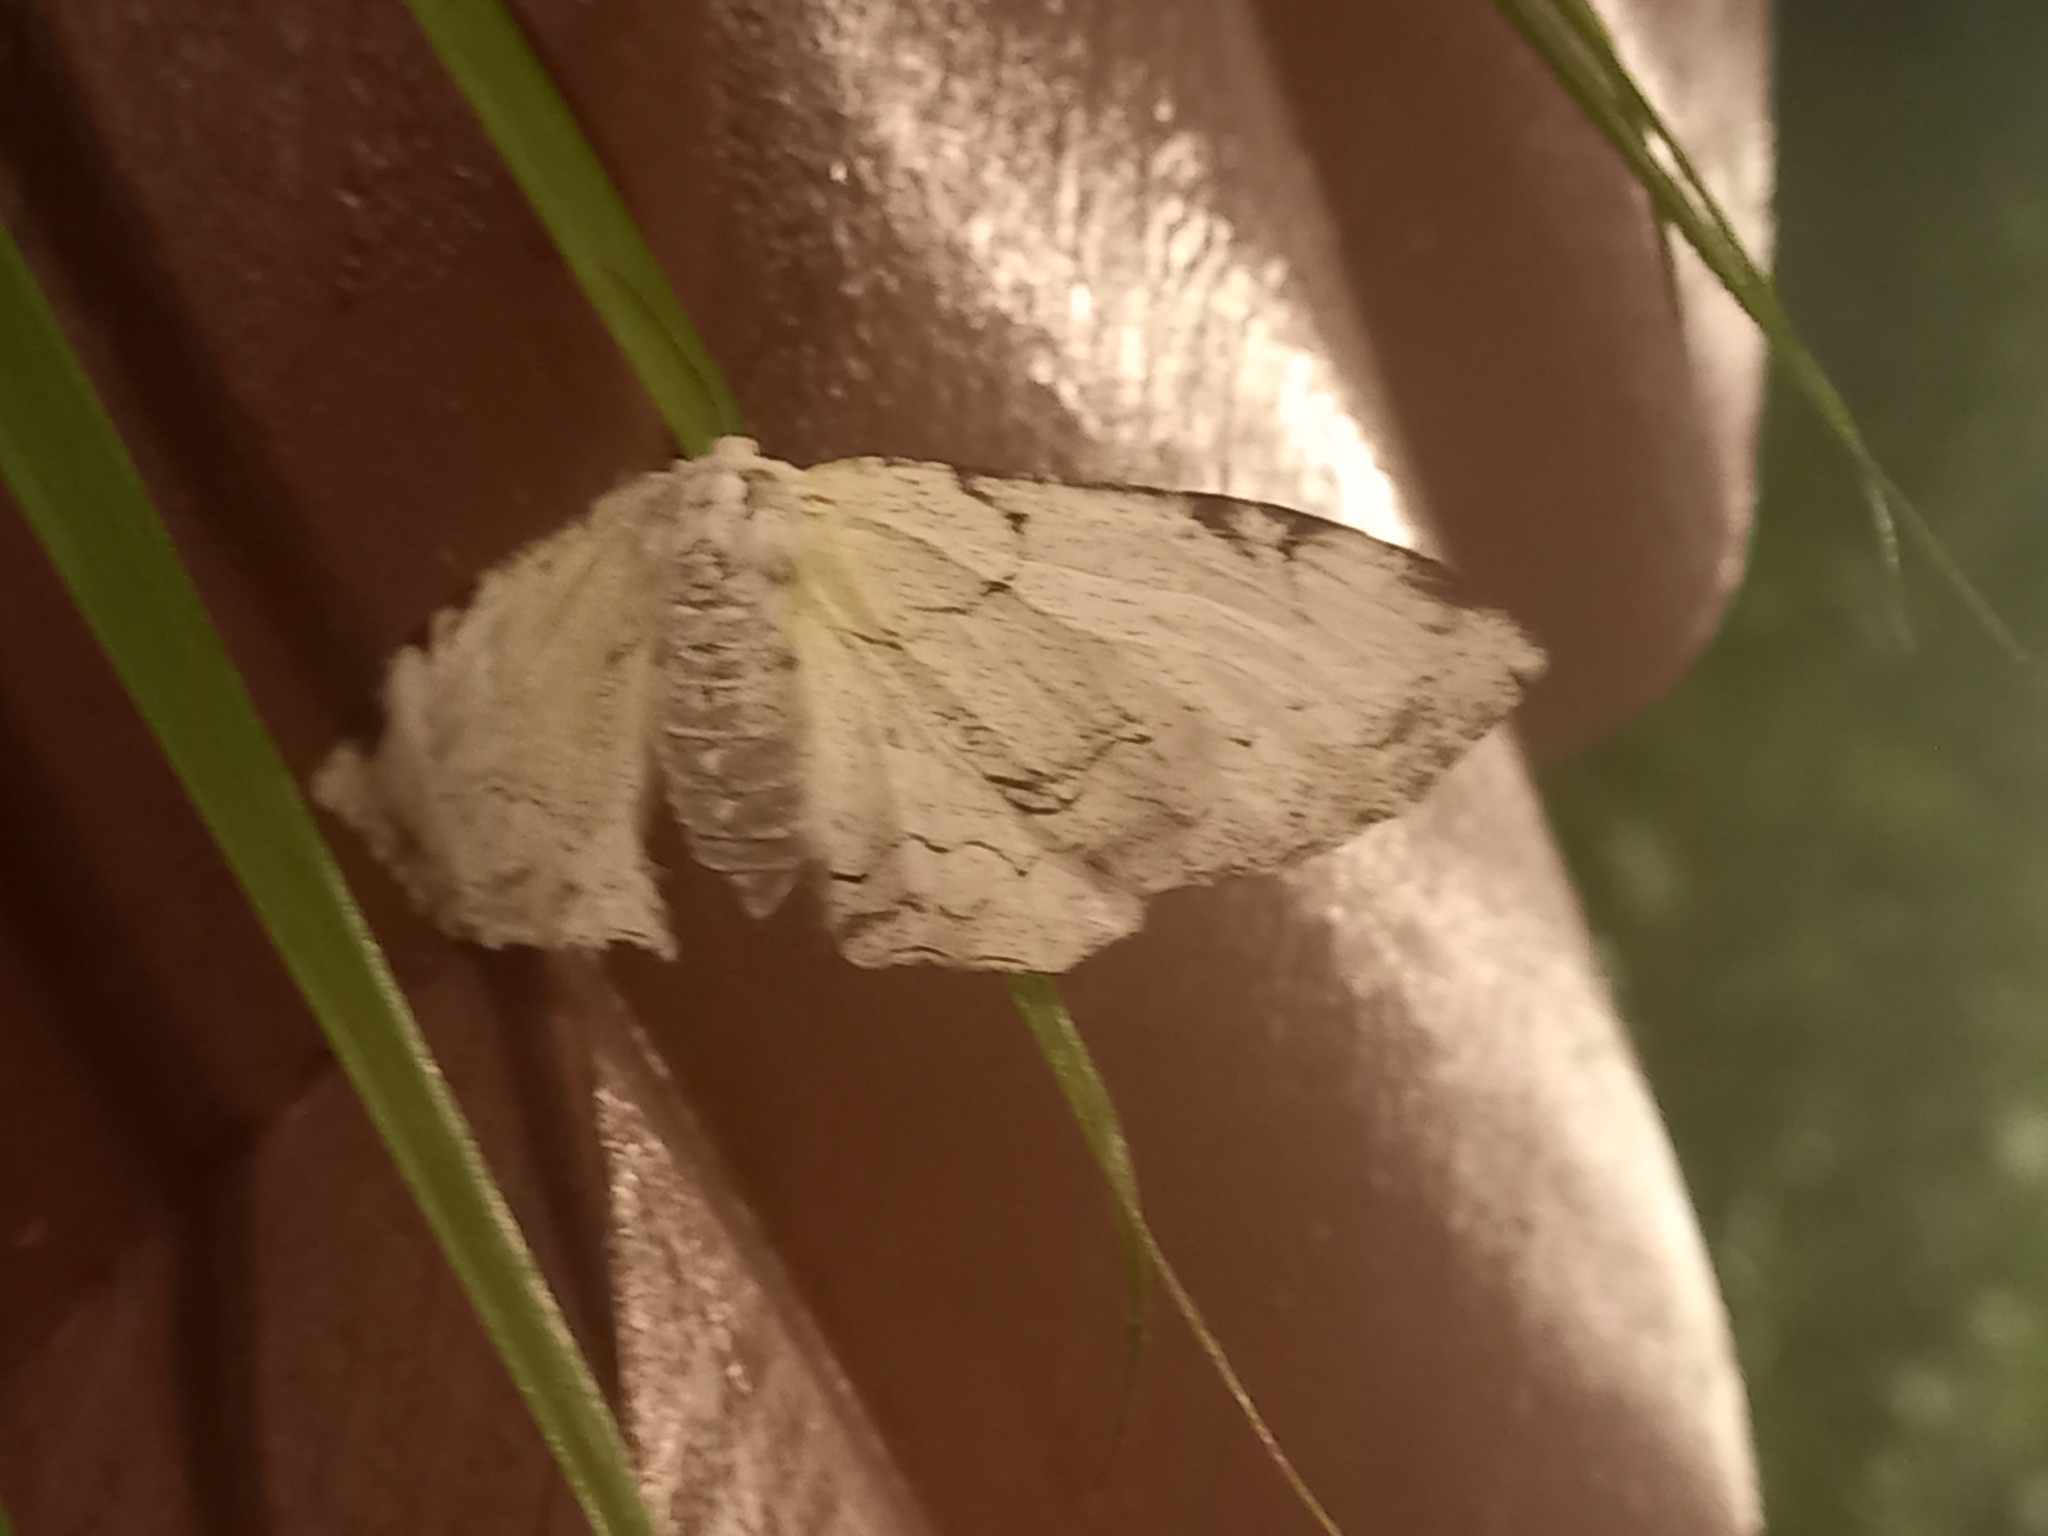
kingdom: Animalia
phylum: Arthropoda
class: Insecta
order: Lepidoptera
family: Geometridae
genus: Thyrinteina
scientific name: Thyrinteina arnobia
